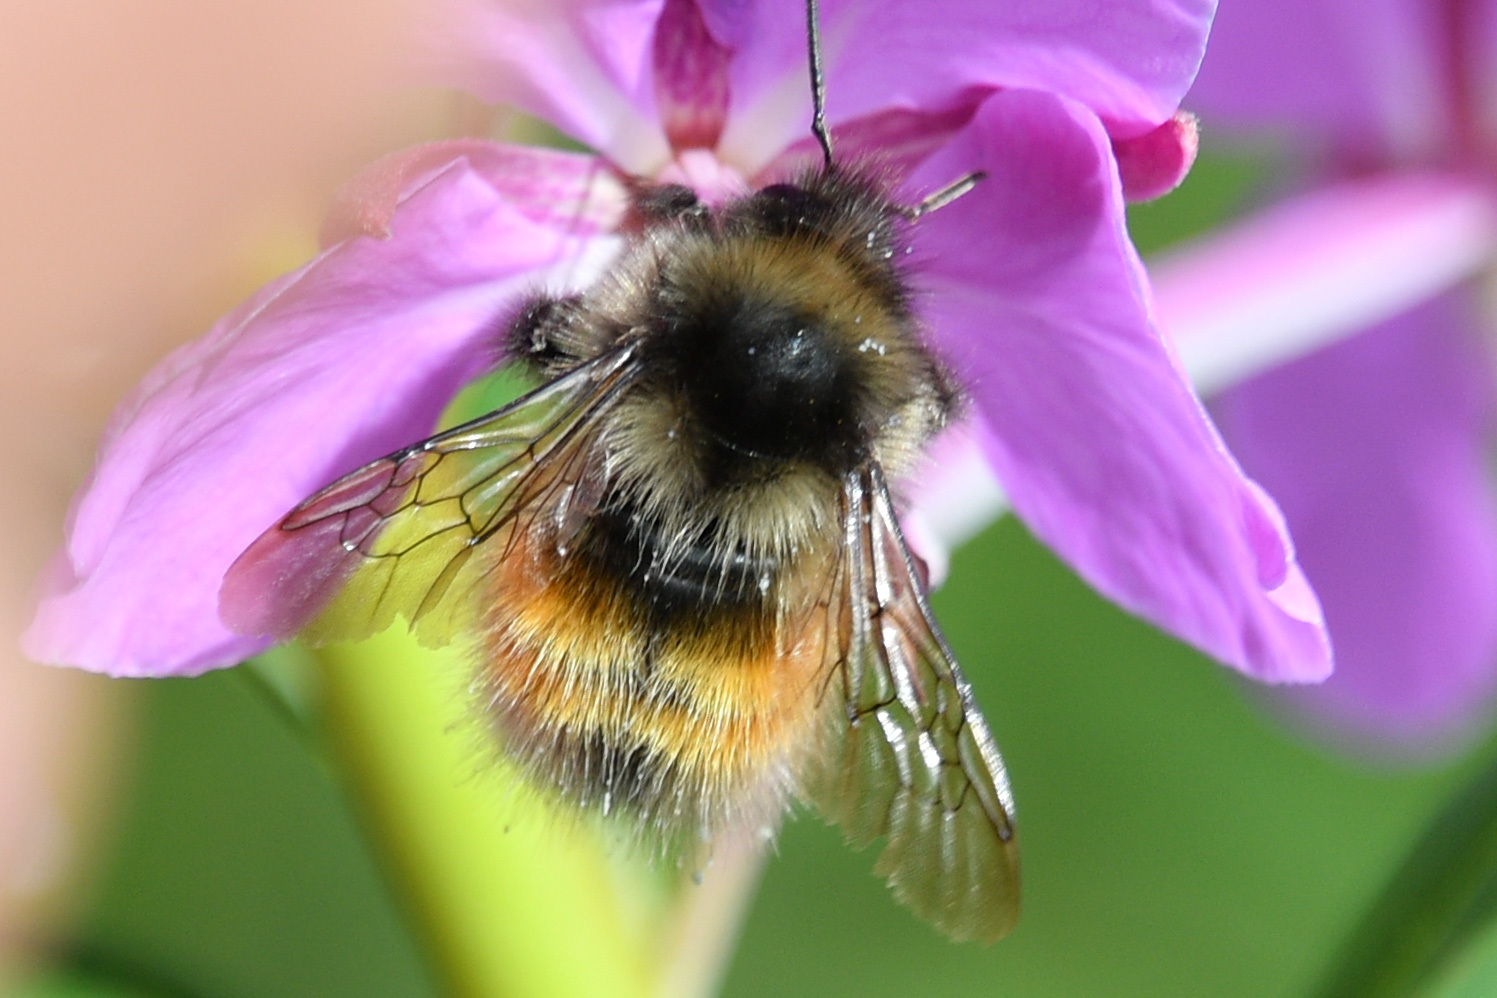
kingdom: Animalia
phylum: Arthropoda
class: Insecta
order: Hymenoptera
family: Apidae
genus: Bombus
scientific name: Bombus melanopygus
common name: Black tail bumble bee
